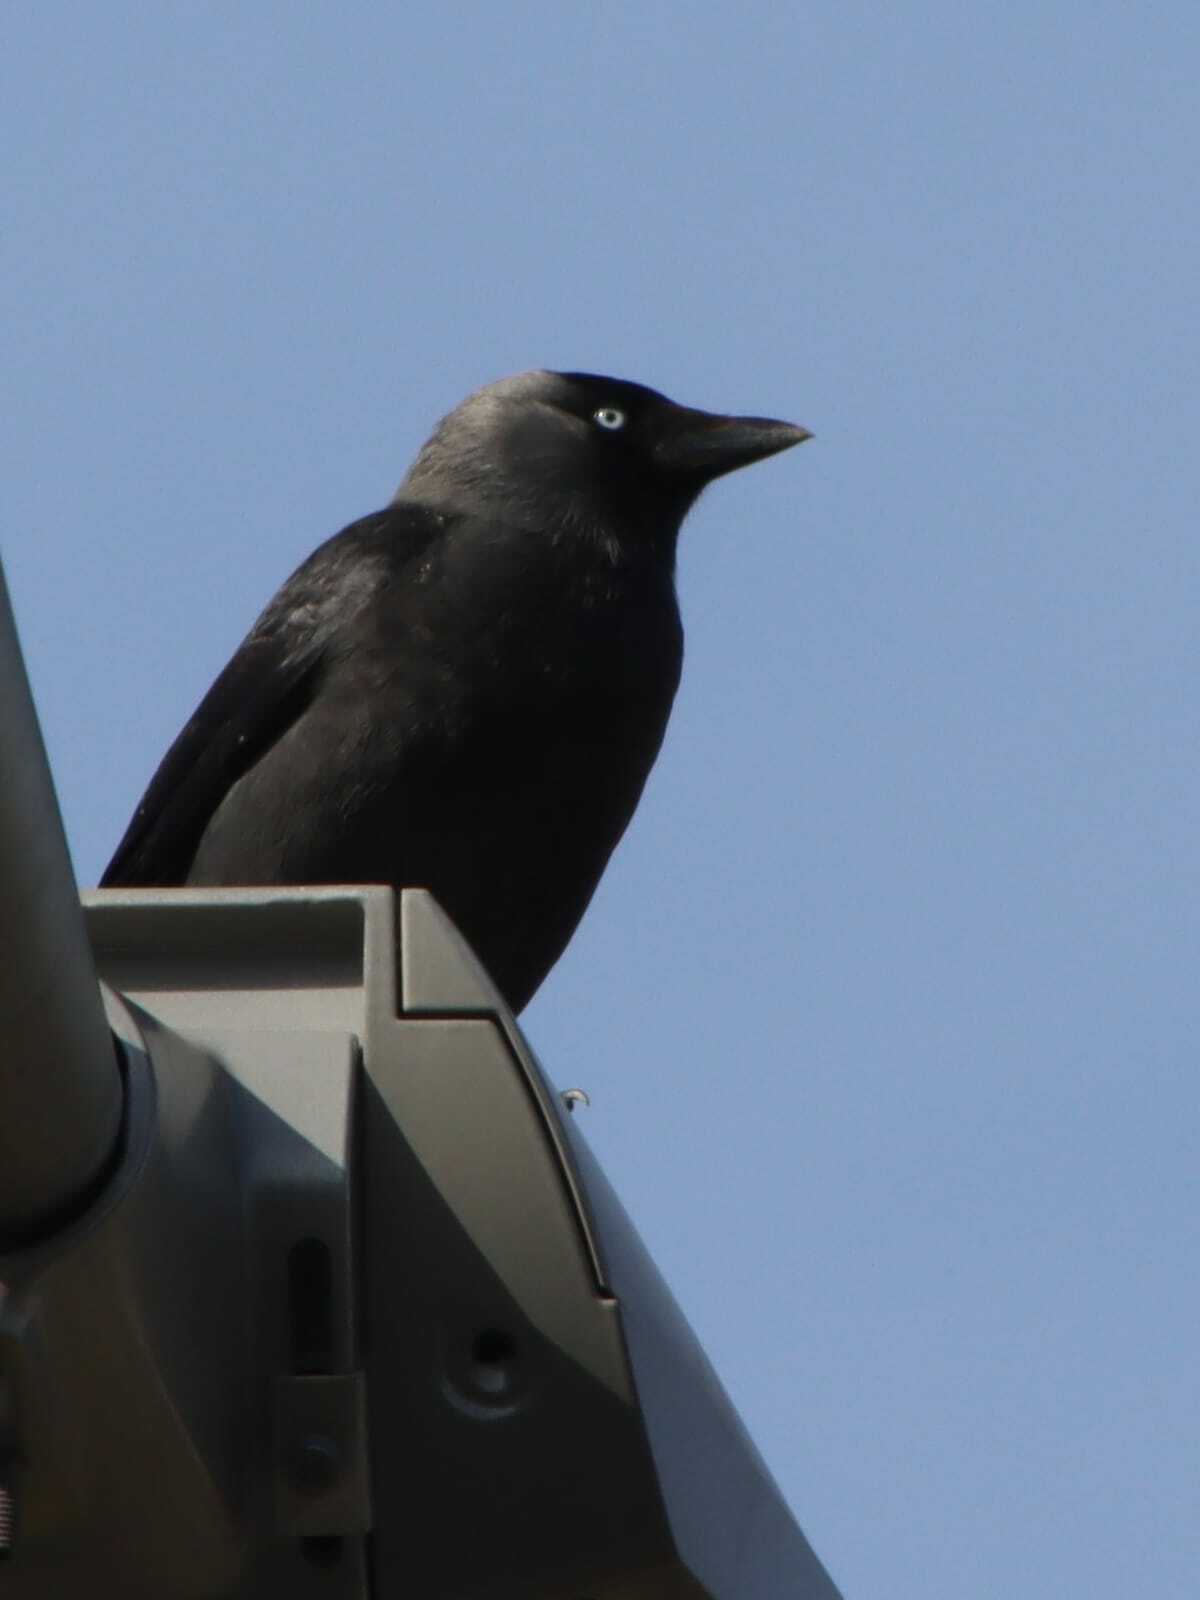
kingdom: Animalia
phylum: Chordata
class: Aves
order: Passeriformes
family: Corvidae
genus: Coloeus
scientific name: Coloeus monedula
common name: Western jackdaw
